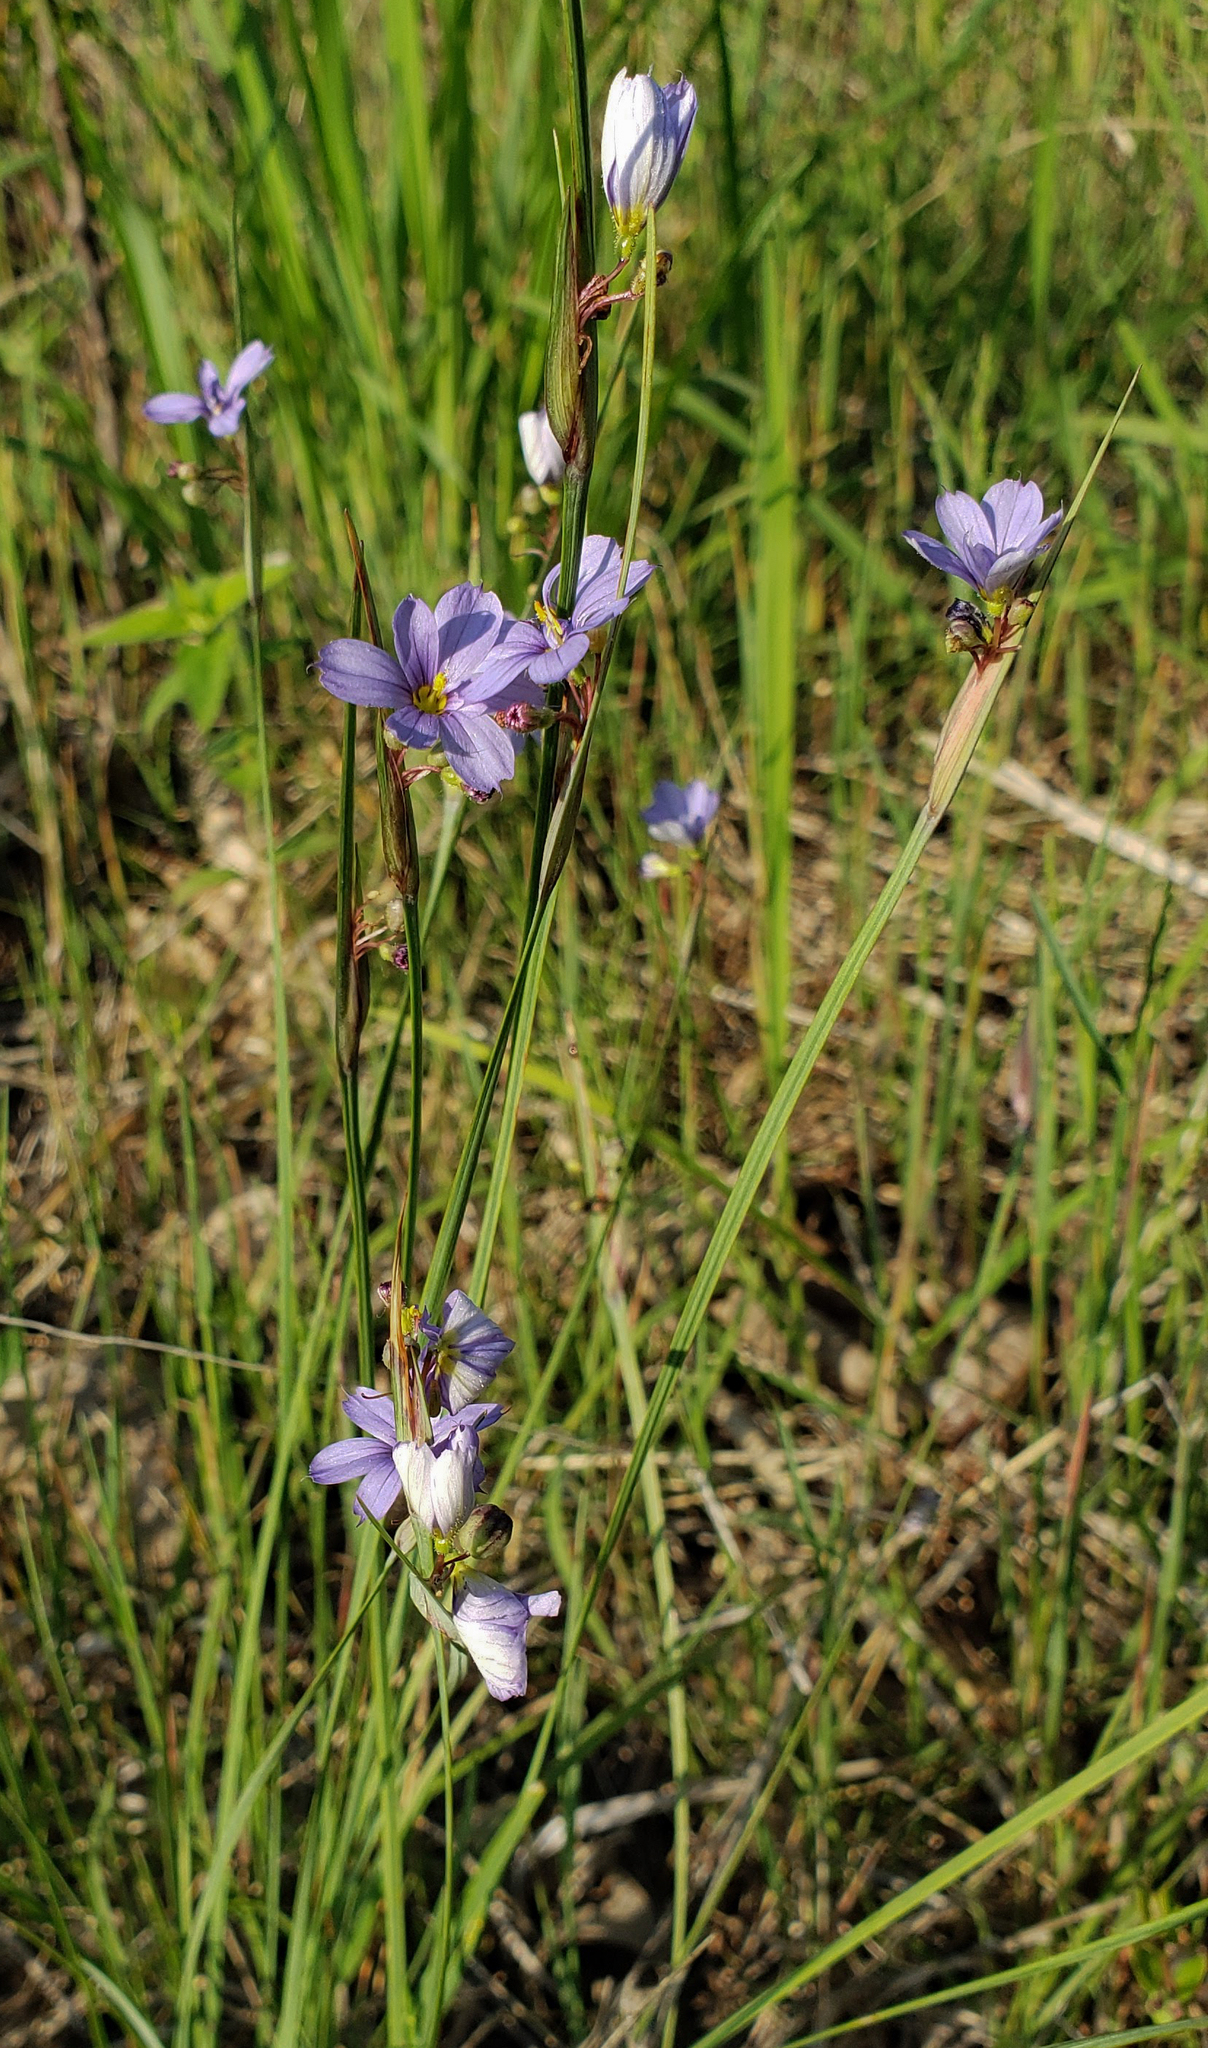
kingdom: Plantae
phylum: Tracheophyta
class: Liliopsida
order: Asparagales
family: Iridaceae
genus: Sisyrinchium
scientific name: Sisyrinchium campestre
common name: Prairie blue-eyed-grass
